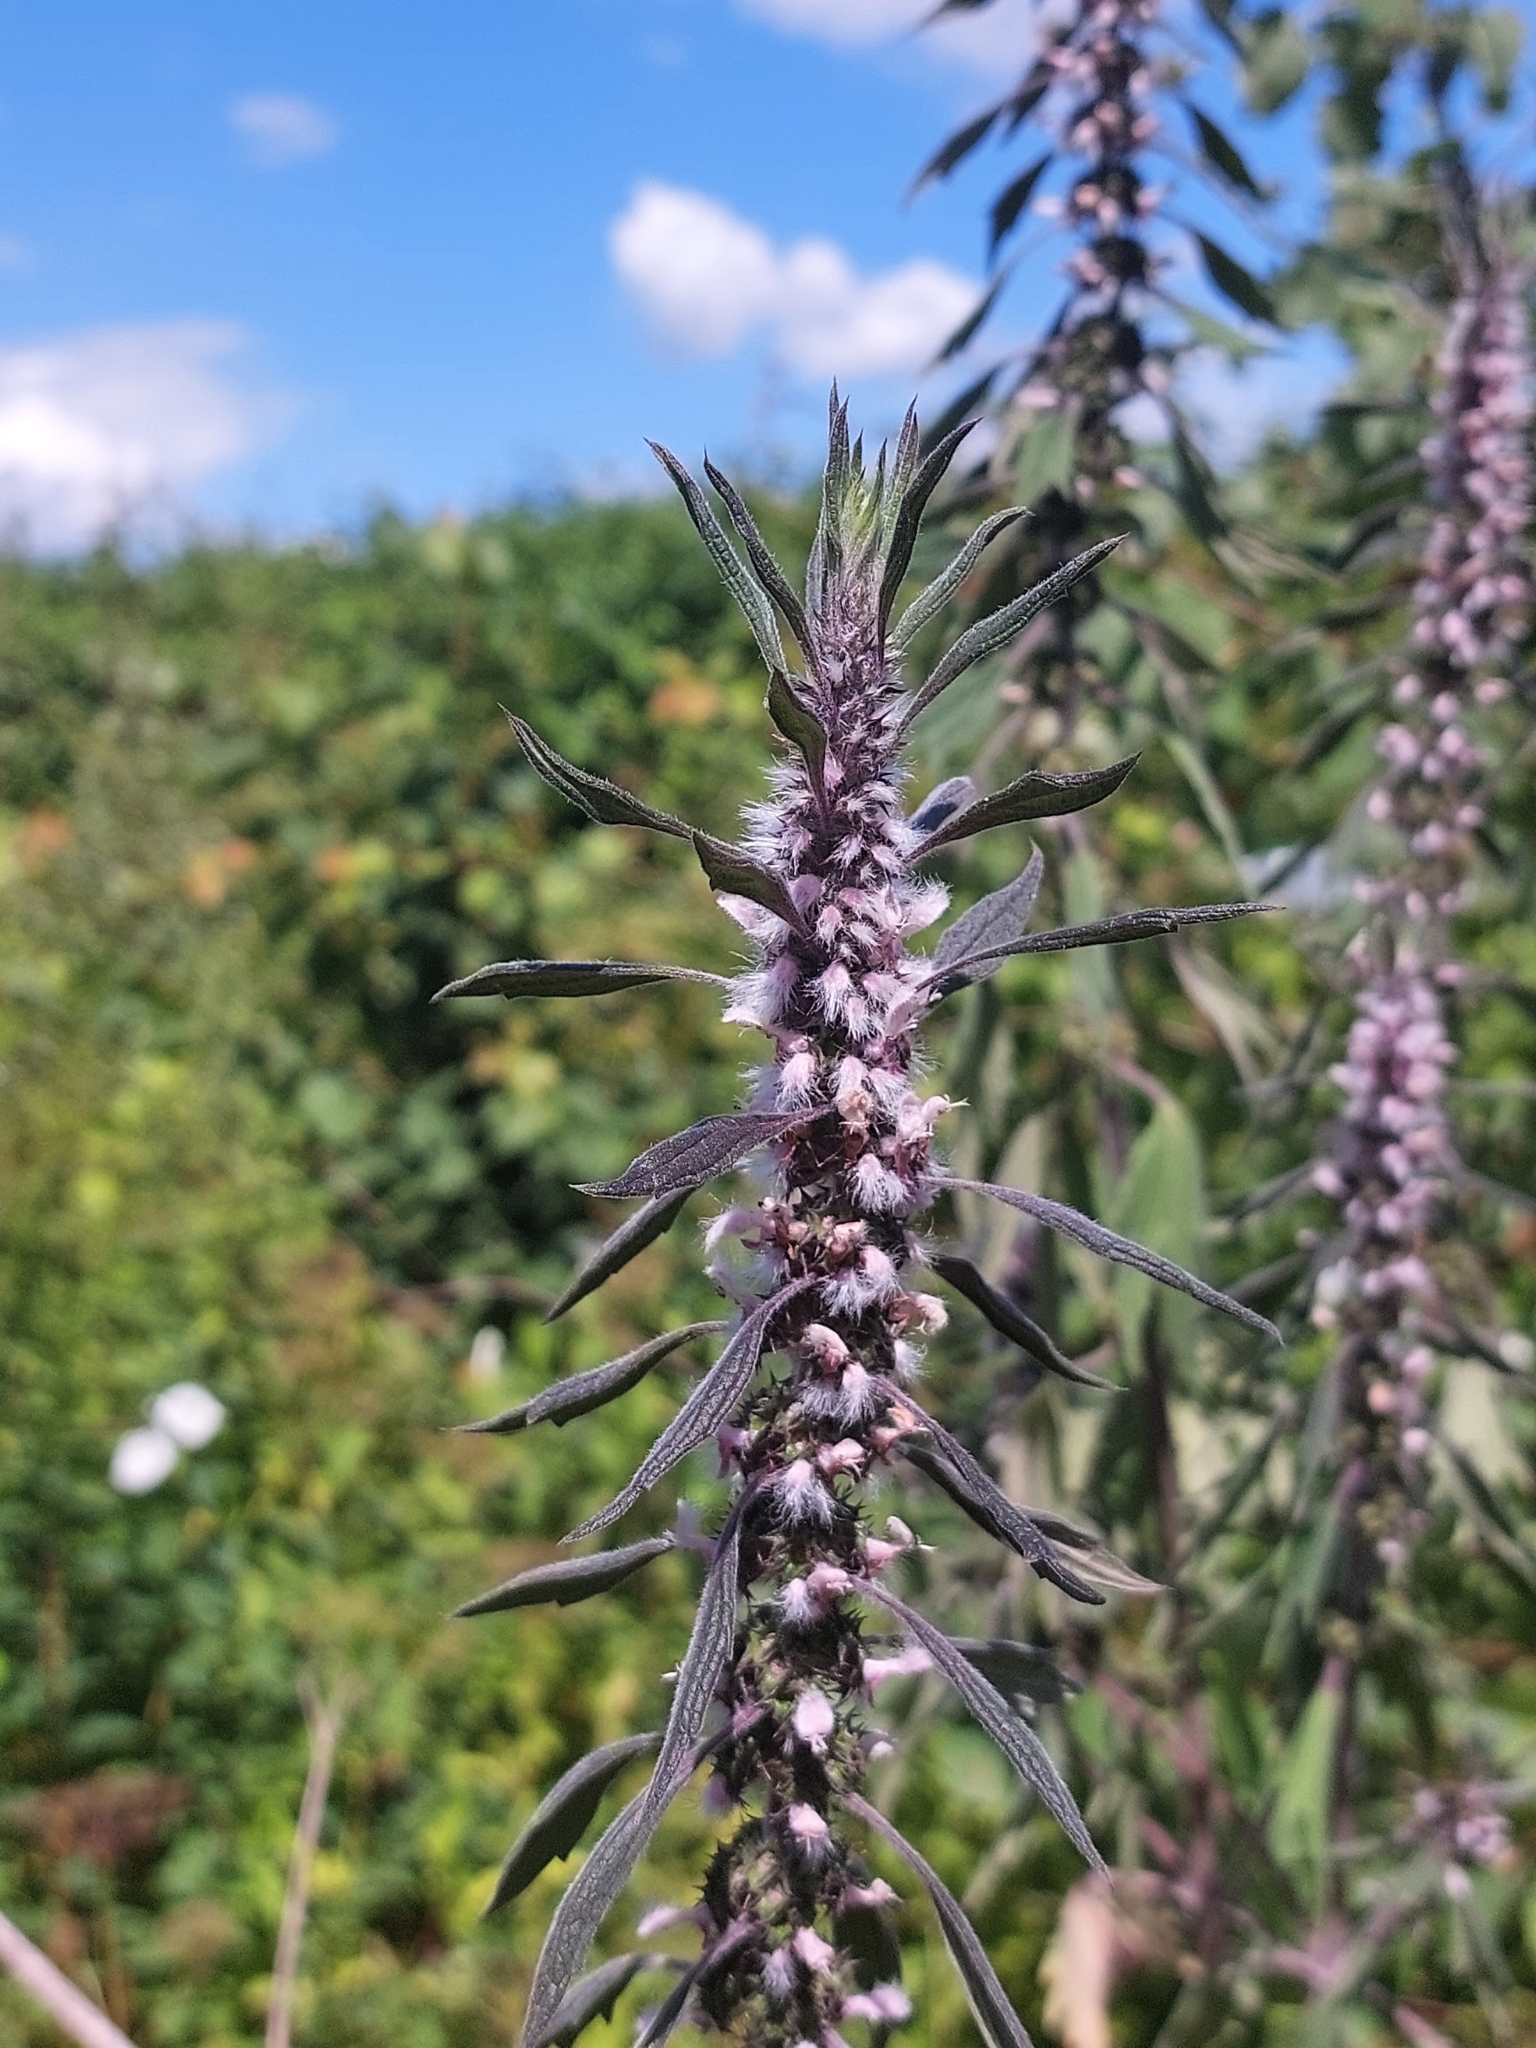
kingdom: Plantae
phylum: Tracheophyta
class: Magnoliopsida
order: Lamiales
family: Lamiaceae
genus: Leonurus
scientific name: Leonurus quinquelobatus
